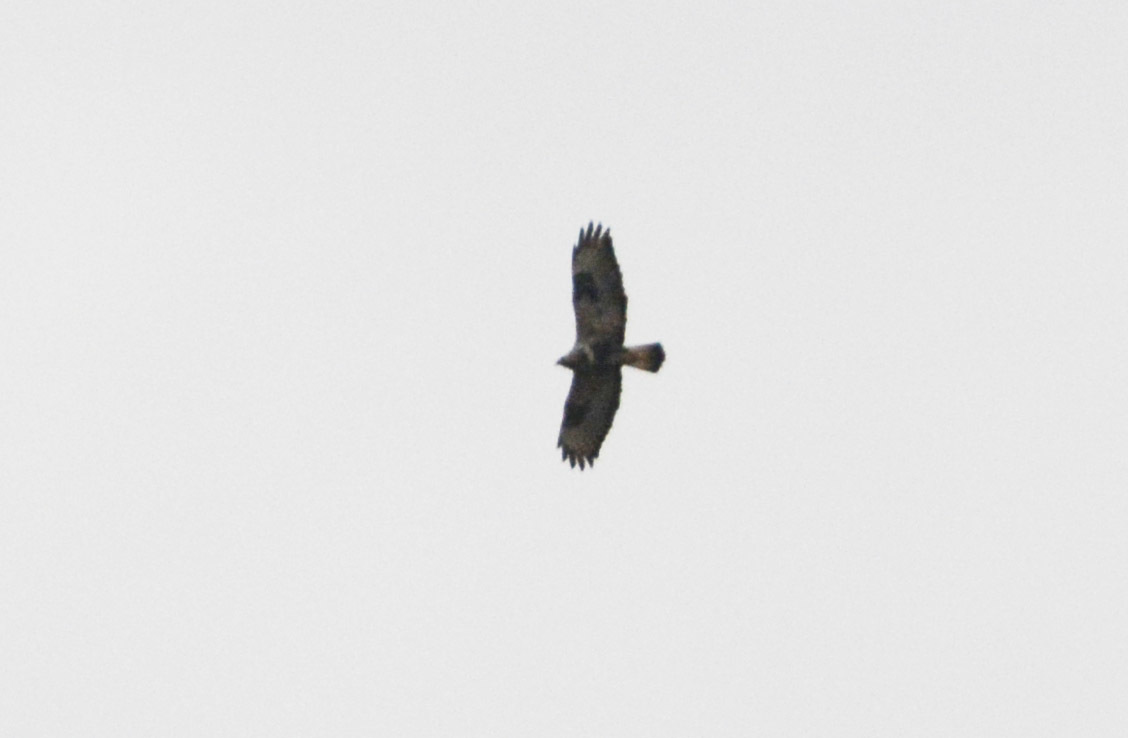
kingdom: Animalia
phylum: Chordata
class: Aves
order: Accipitriformes
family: Accipitridae
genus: Buteo
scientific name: Buteo lagopus
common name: Rough-legged buzzard
